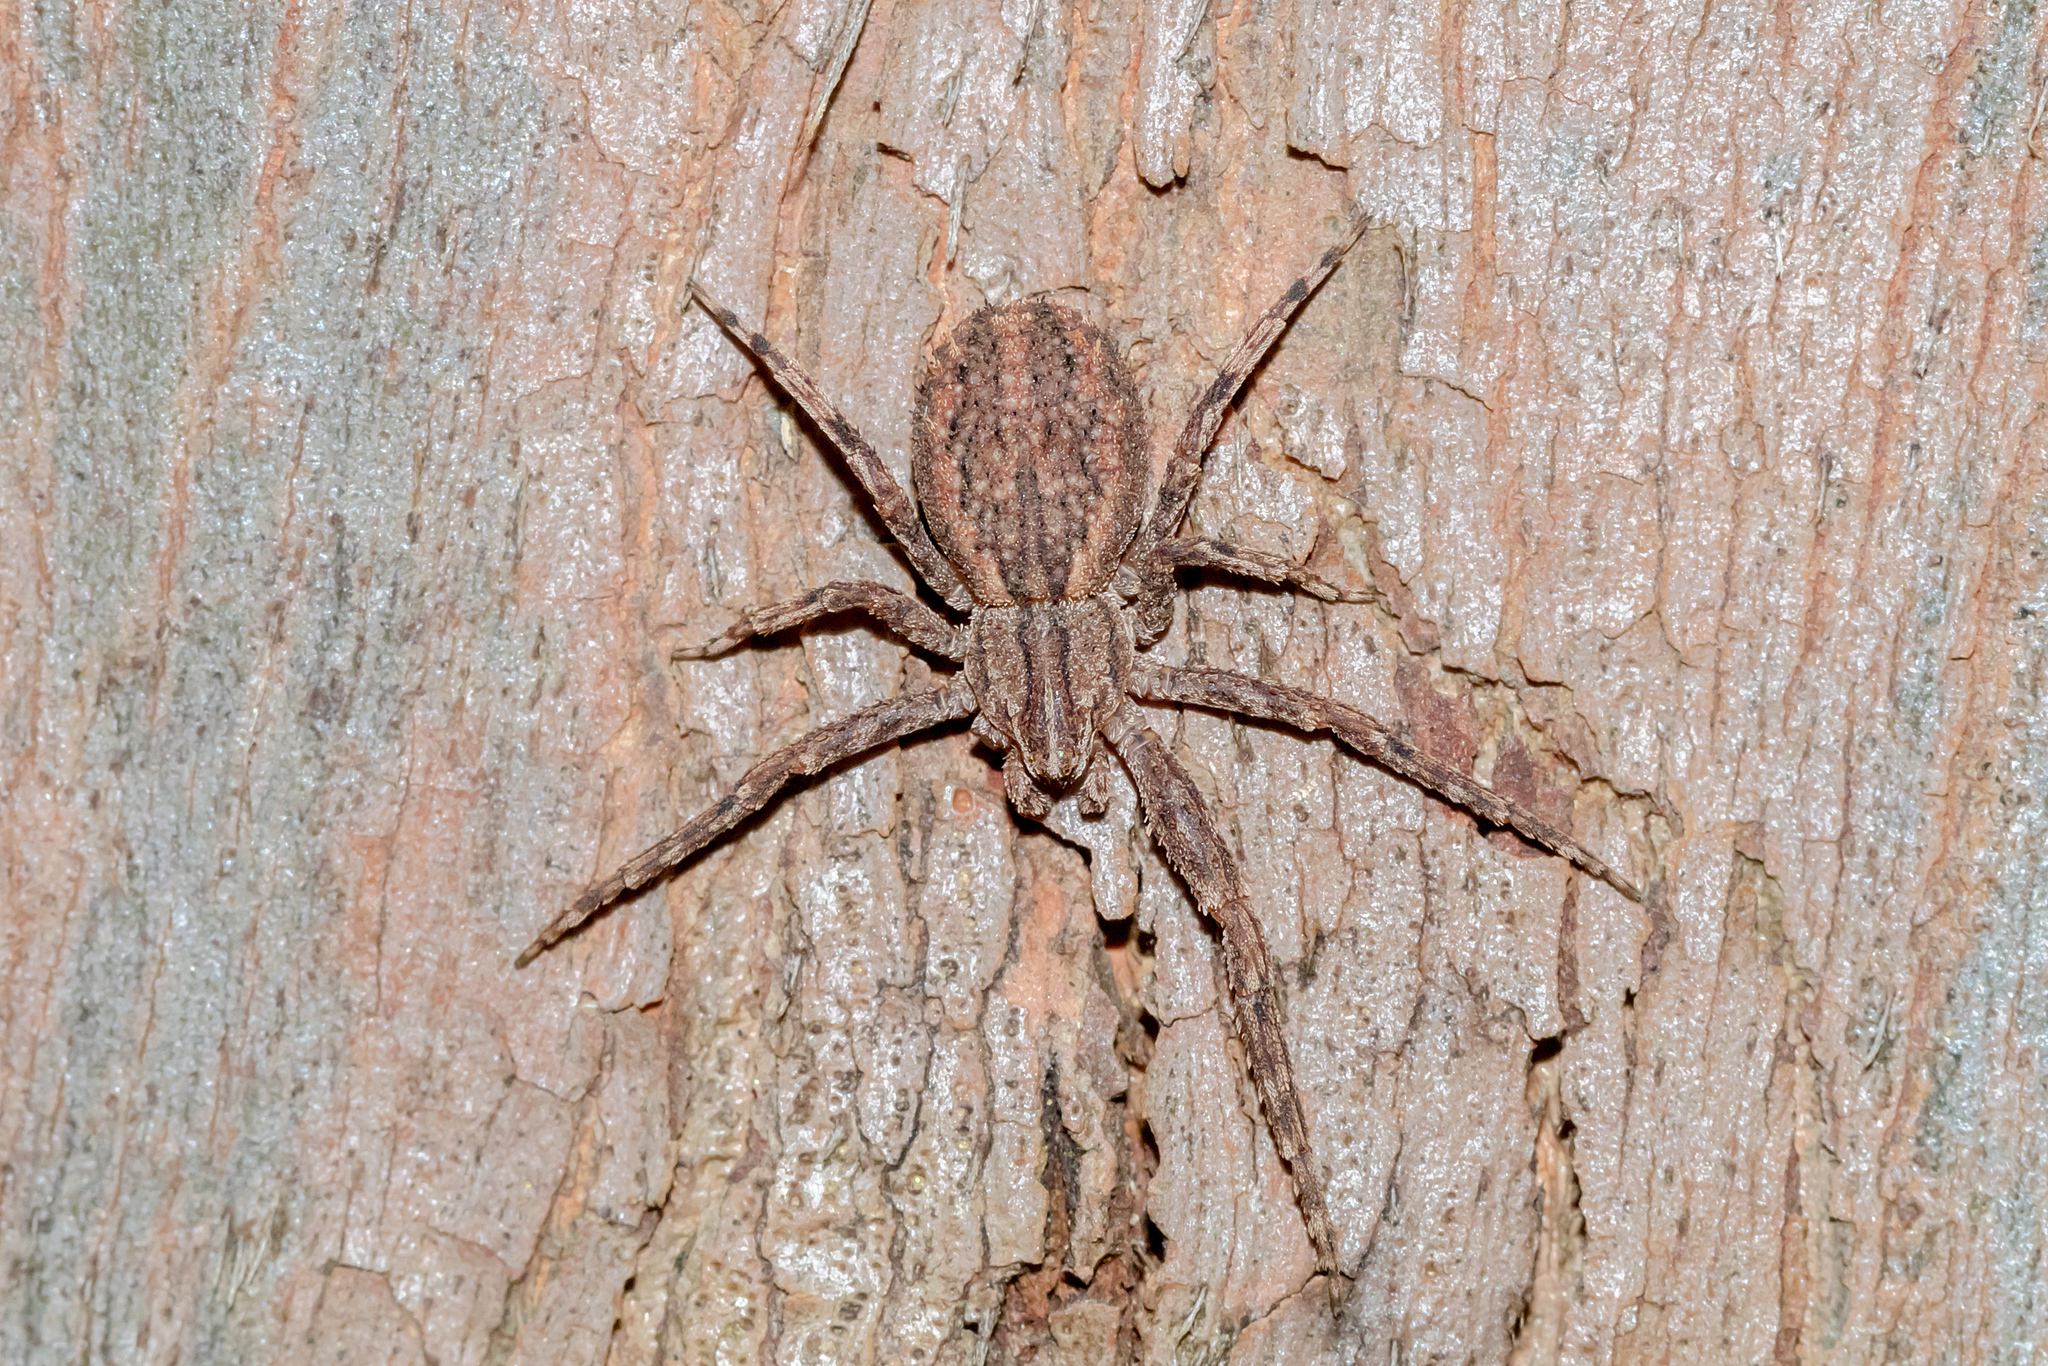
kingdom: Animalia
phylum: Arthropoda
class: Arachnida
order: Araneae
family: Thomisidae
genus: Isala
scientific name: Isala cambridgei
